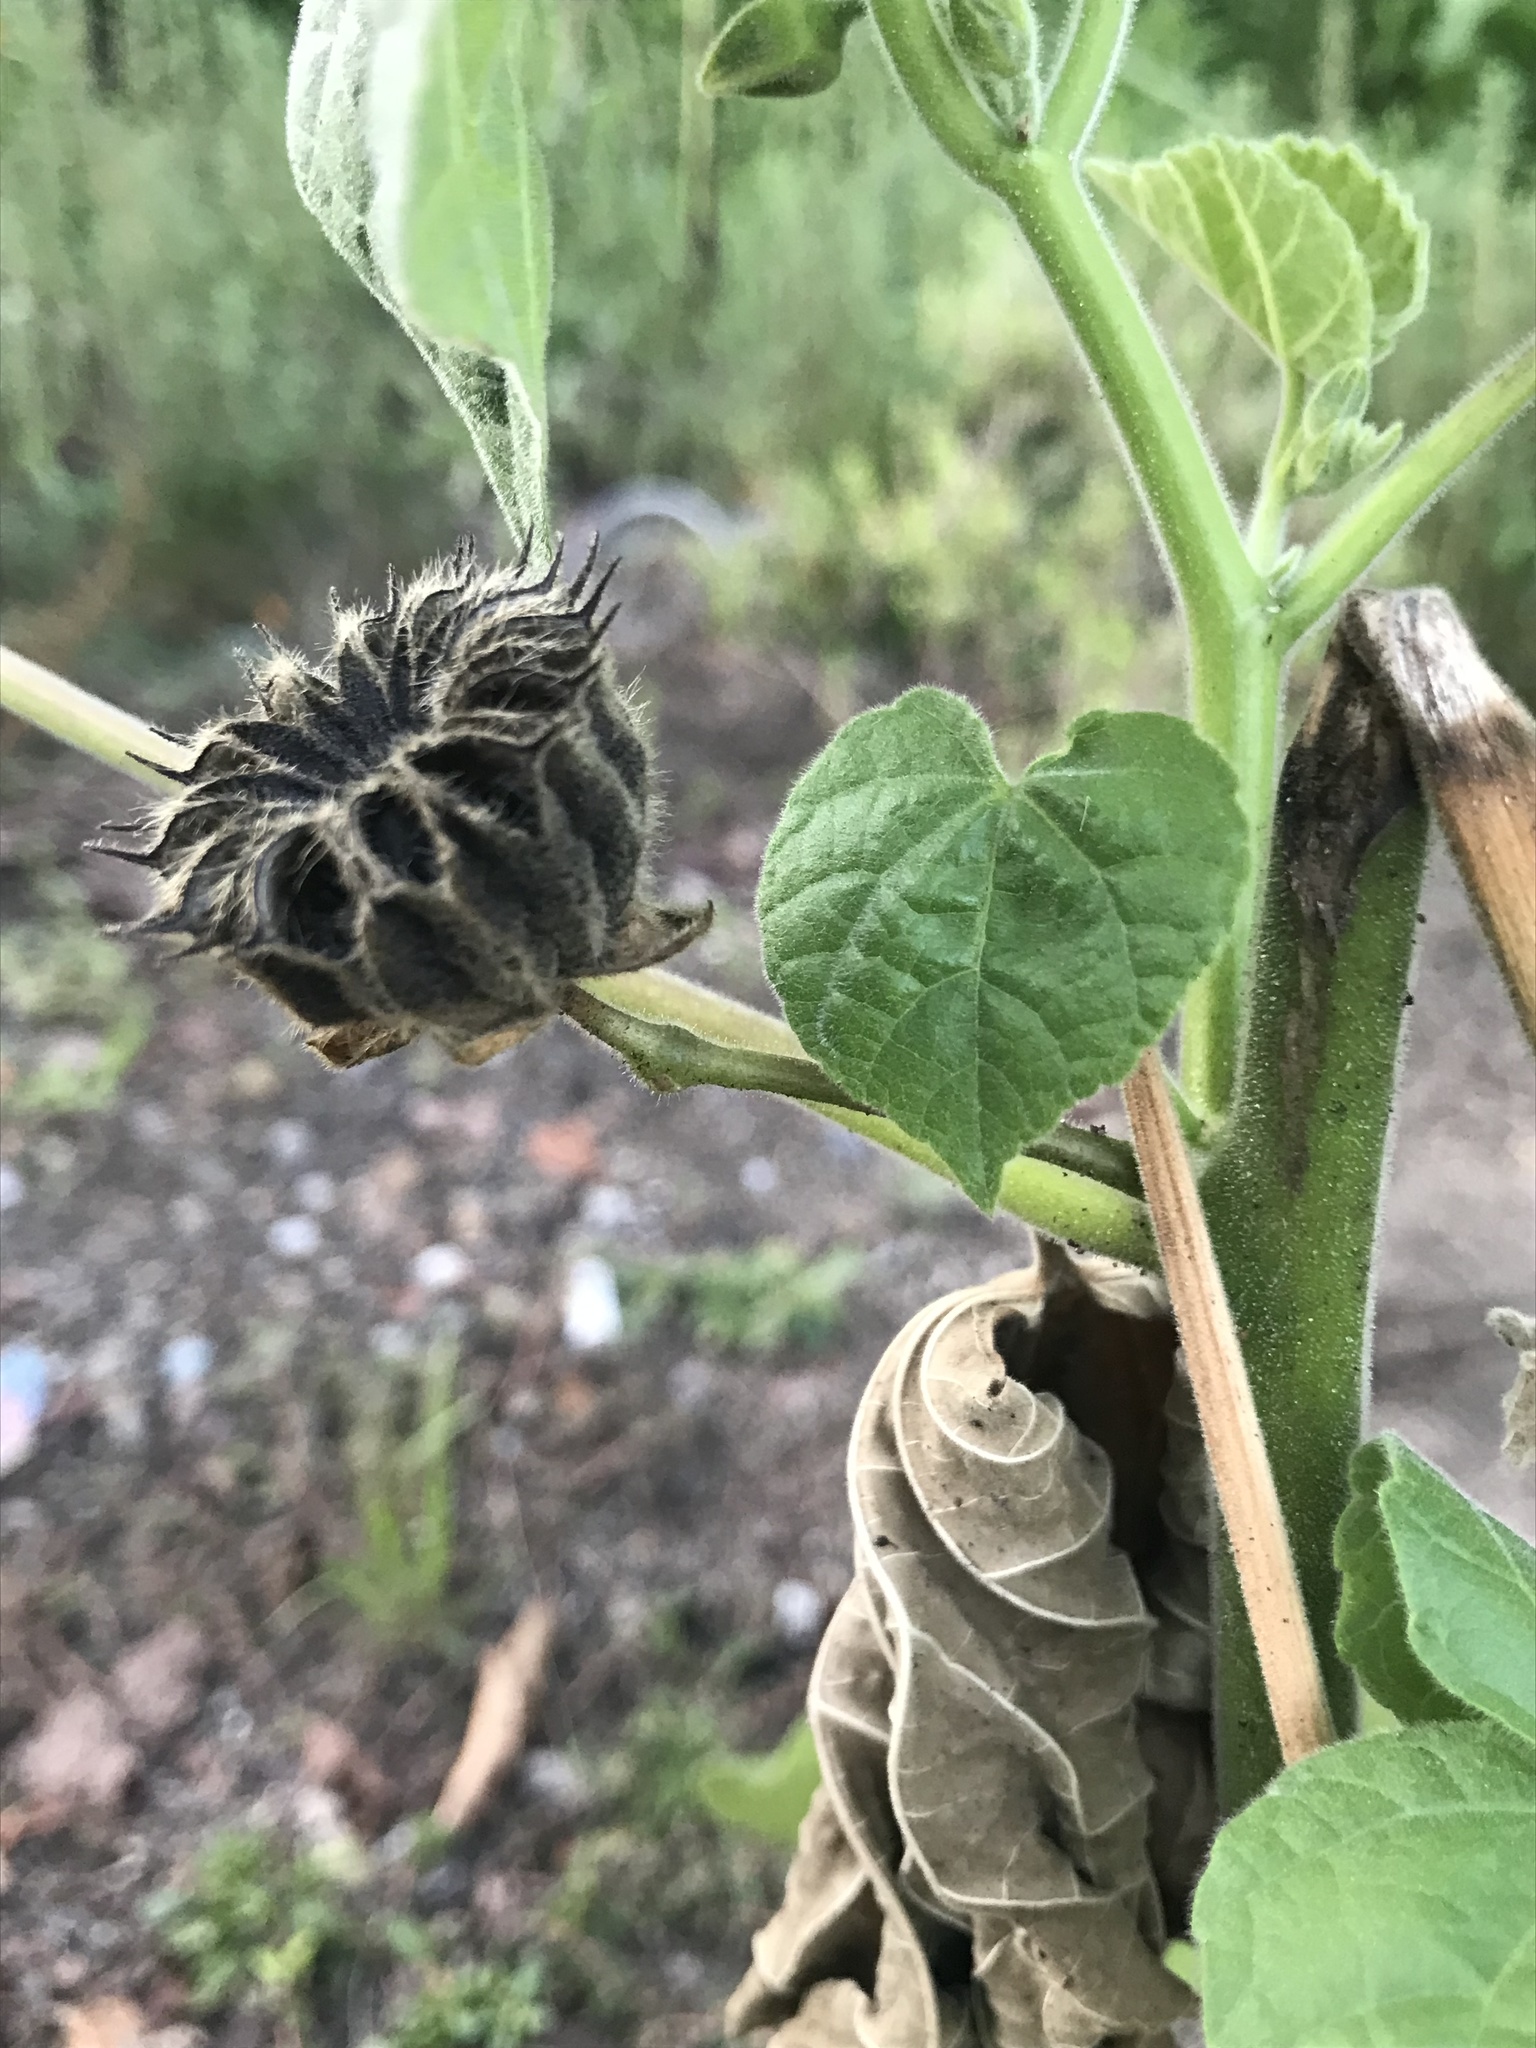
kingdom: Plantae
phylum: Tracheophyta
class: Magnoliopsida
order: Malvales
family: Malvaceae
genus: Abutilon
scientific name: Abutilon theophrasti
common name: Velvetleaf
